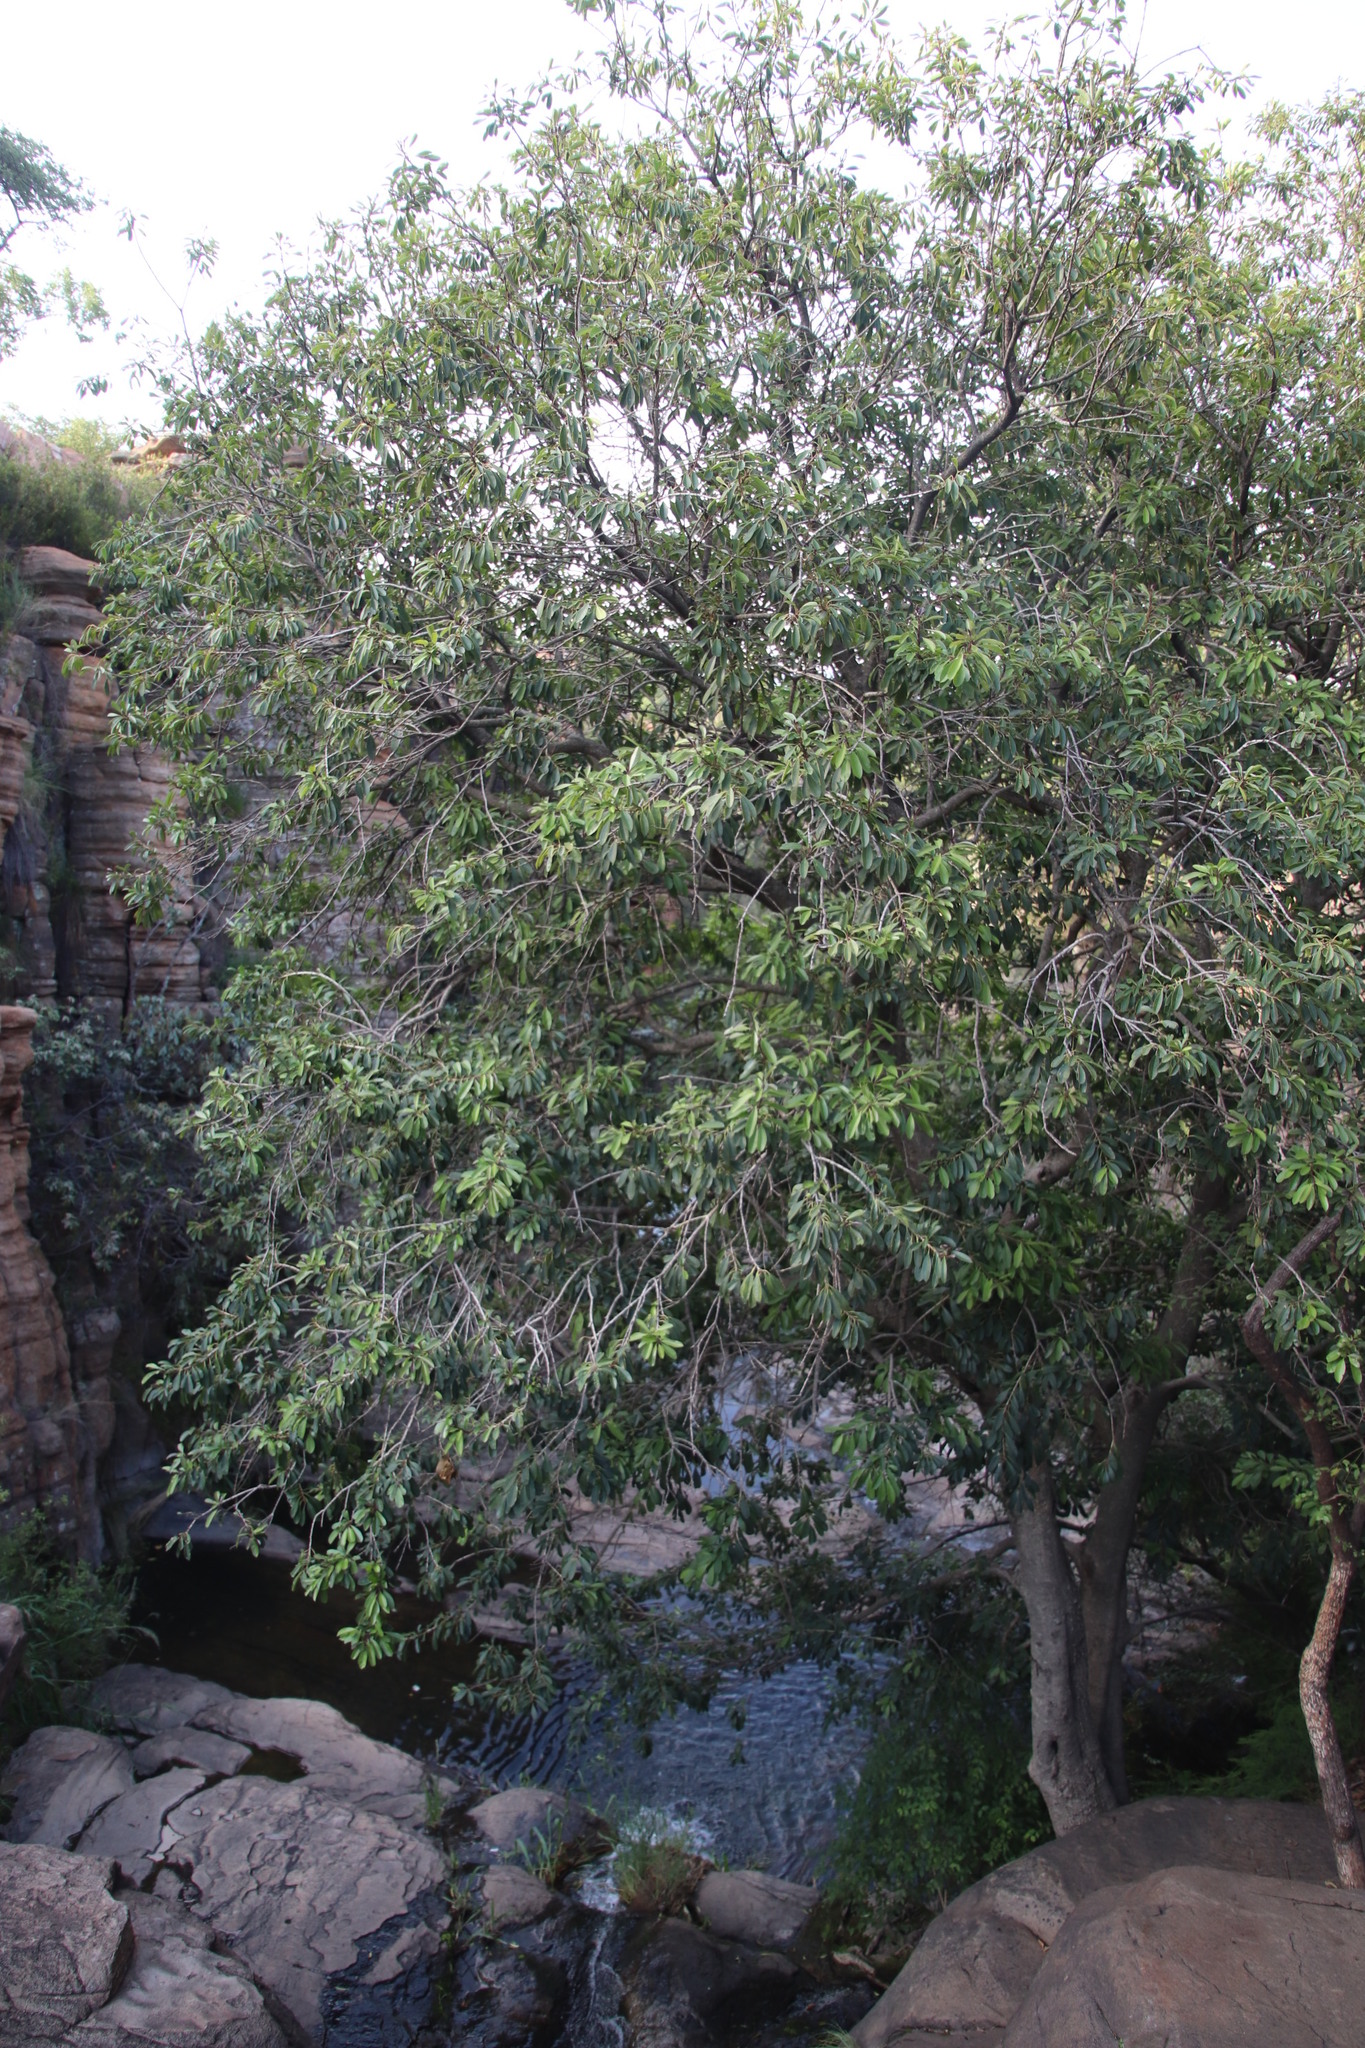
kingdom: Plantae
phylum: Tracheophyta
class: Magnoliopsida
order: Ericales
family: Sapotaceae
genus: Mimusops
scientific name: Mimusops zeyheri
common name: Transvaal red milkwood
